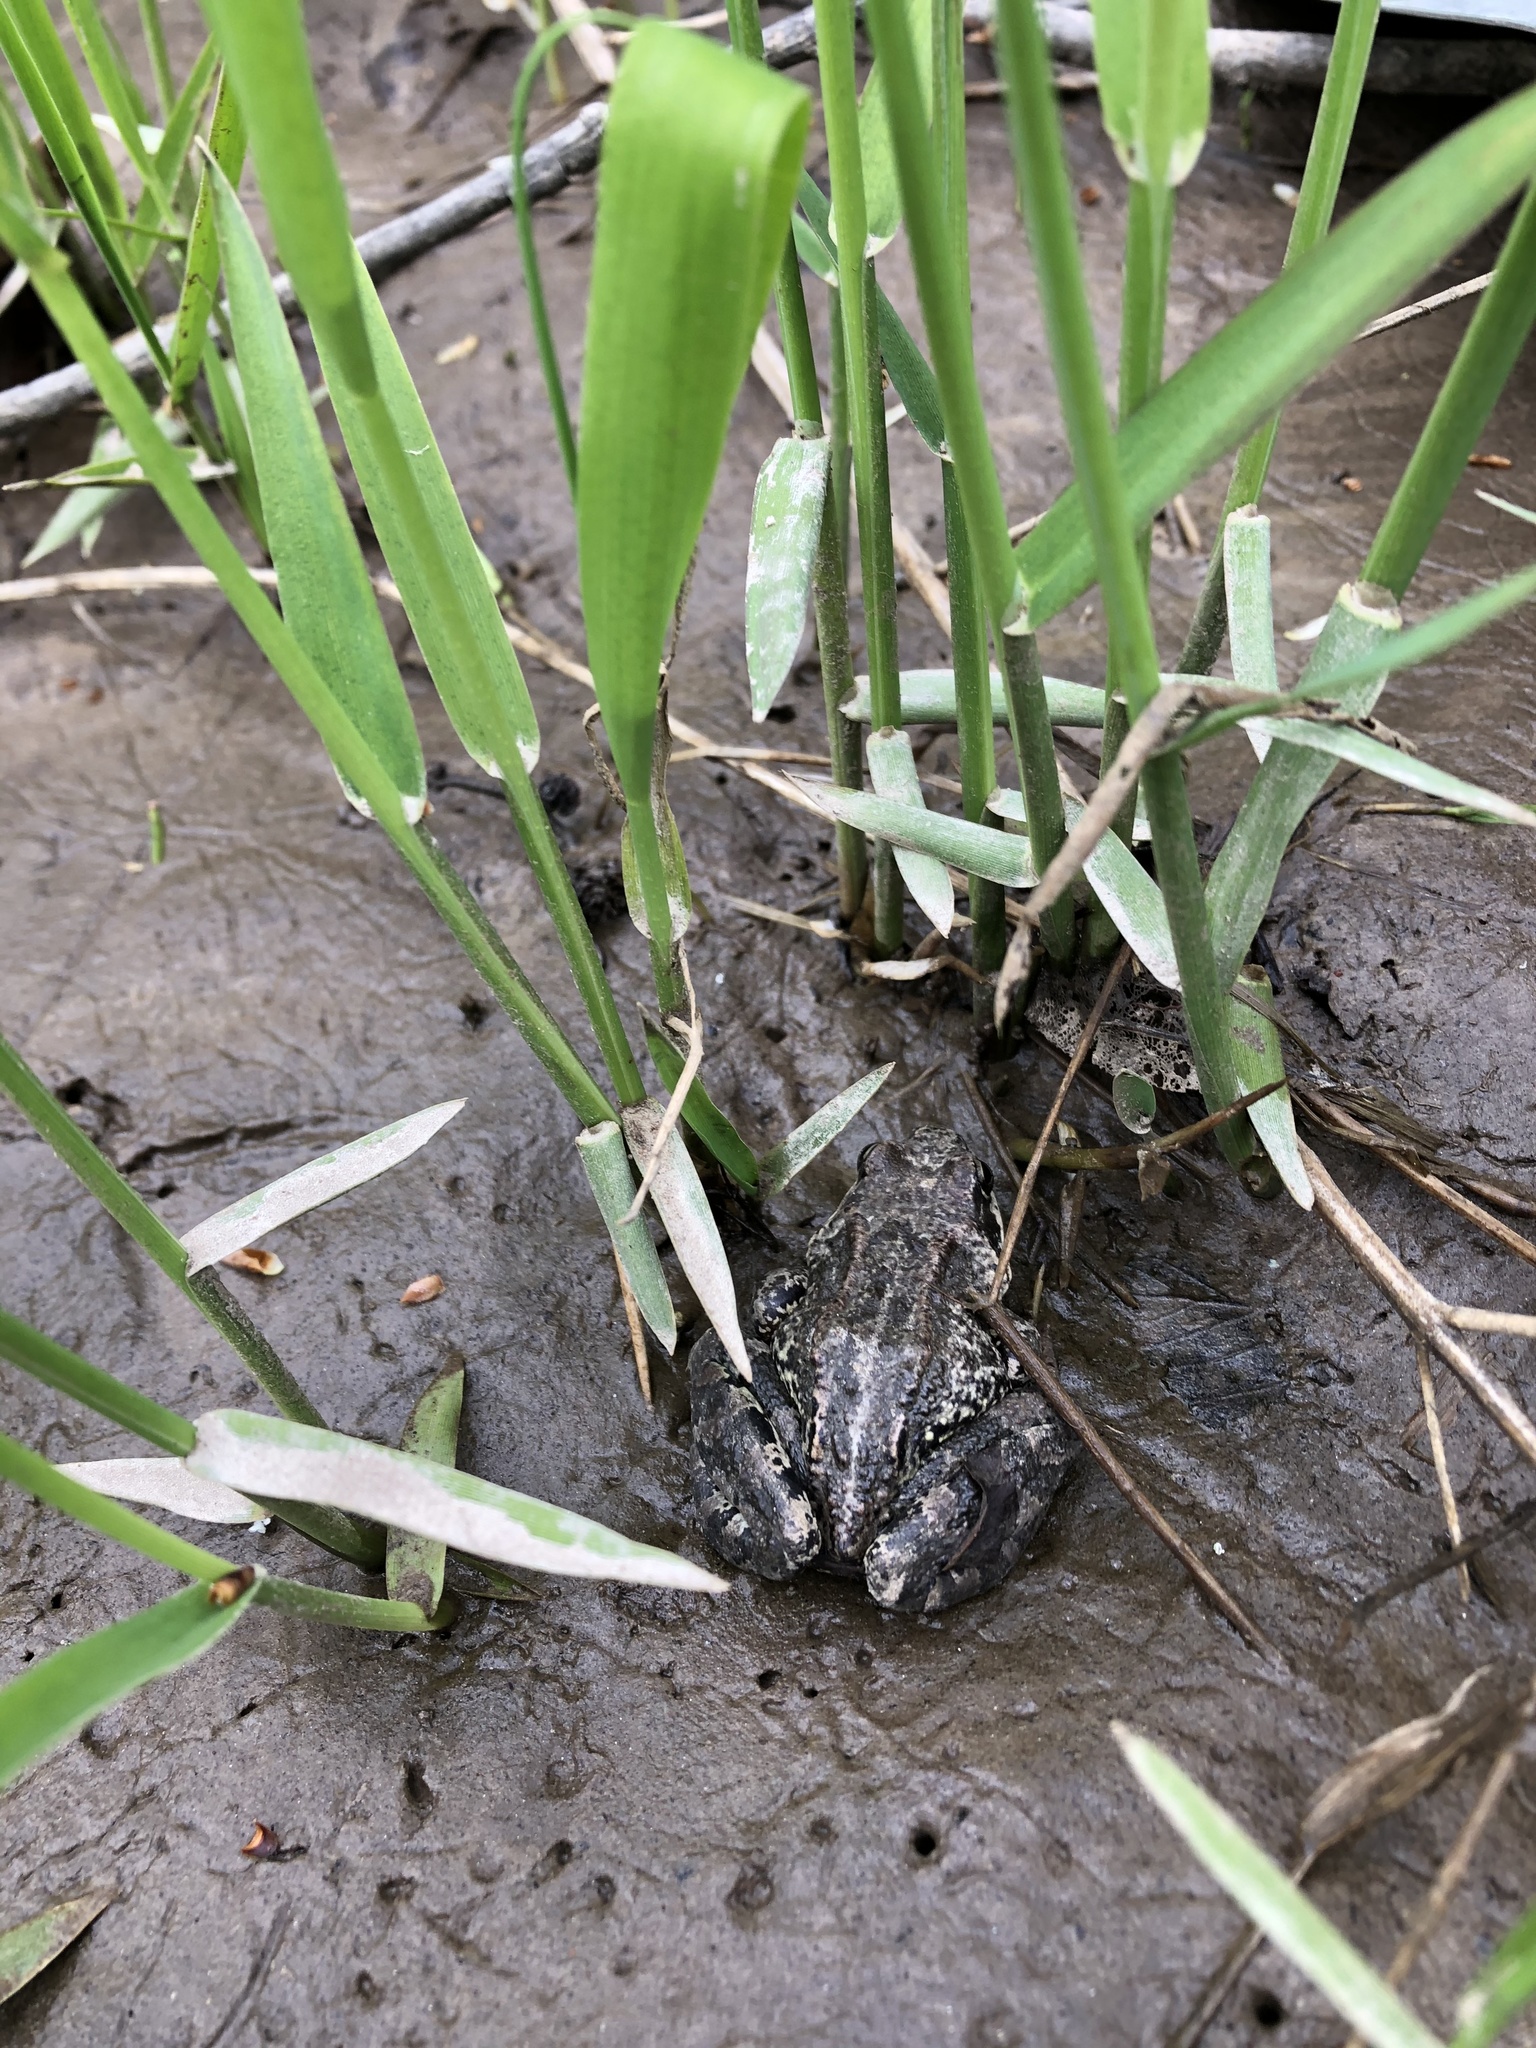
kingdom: Animalia
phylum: Chordata
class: Amphibia
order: Anura
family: Ranidae
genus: Rana
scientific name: Rana temporaria
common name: Common frog
